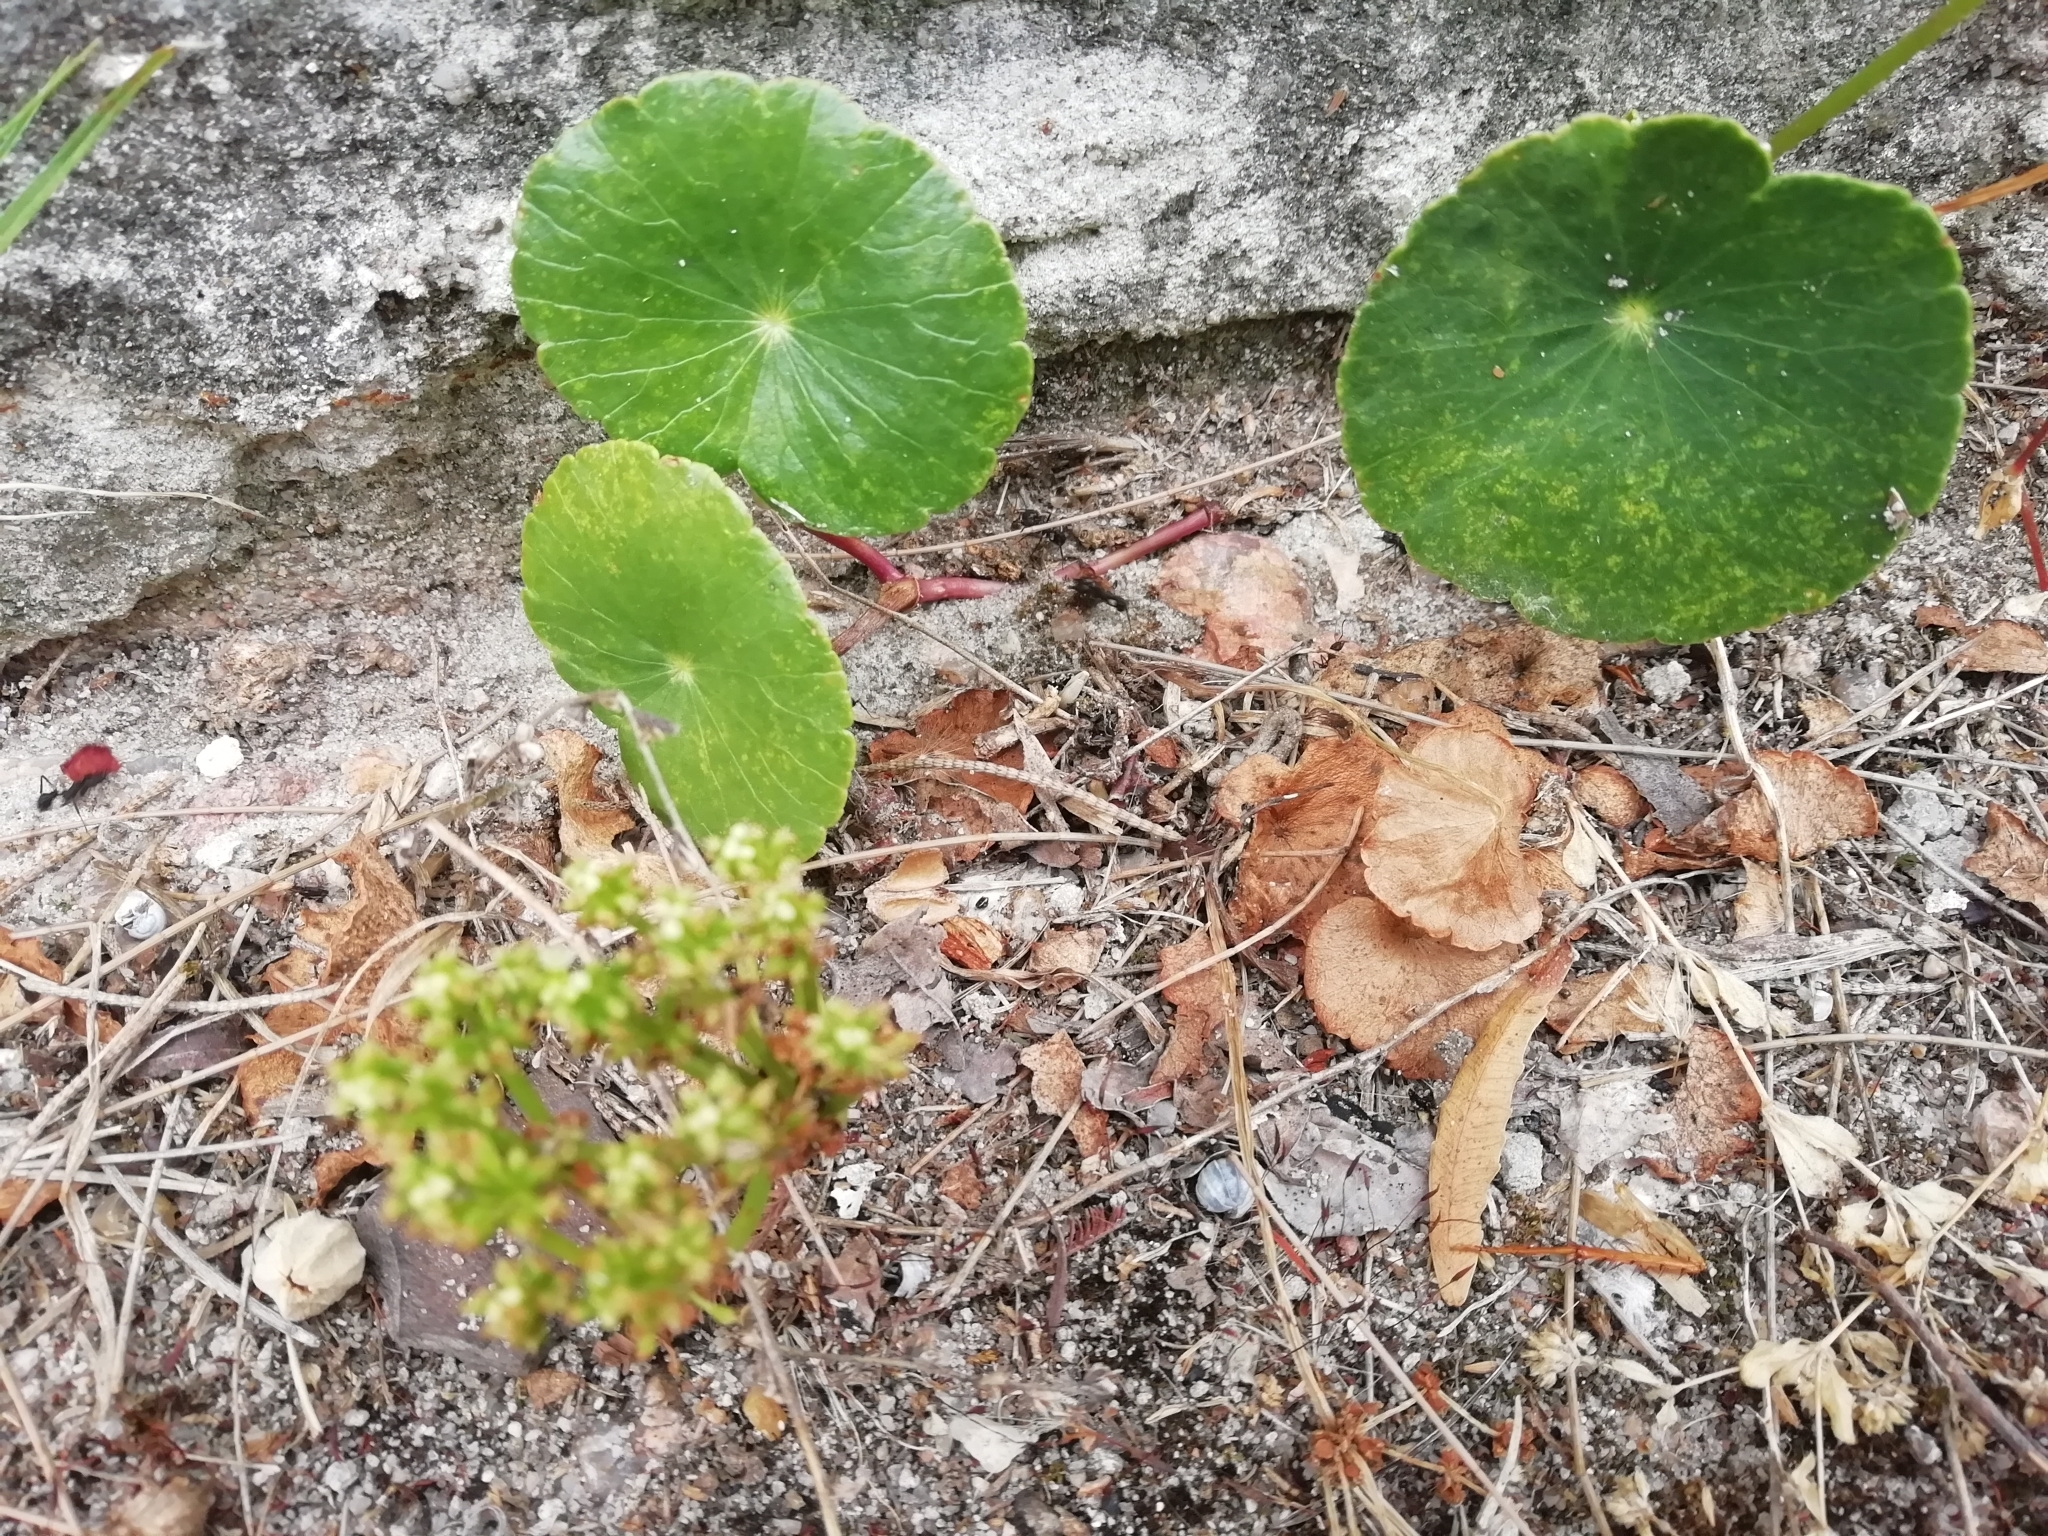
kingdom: Plantae
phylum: Tracheophyta
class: Magnoliopsida
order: Apiales
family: Araliaceae
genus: Hydrocotyle
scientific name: Hydrocotyle bonariensis
